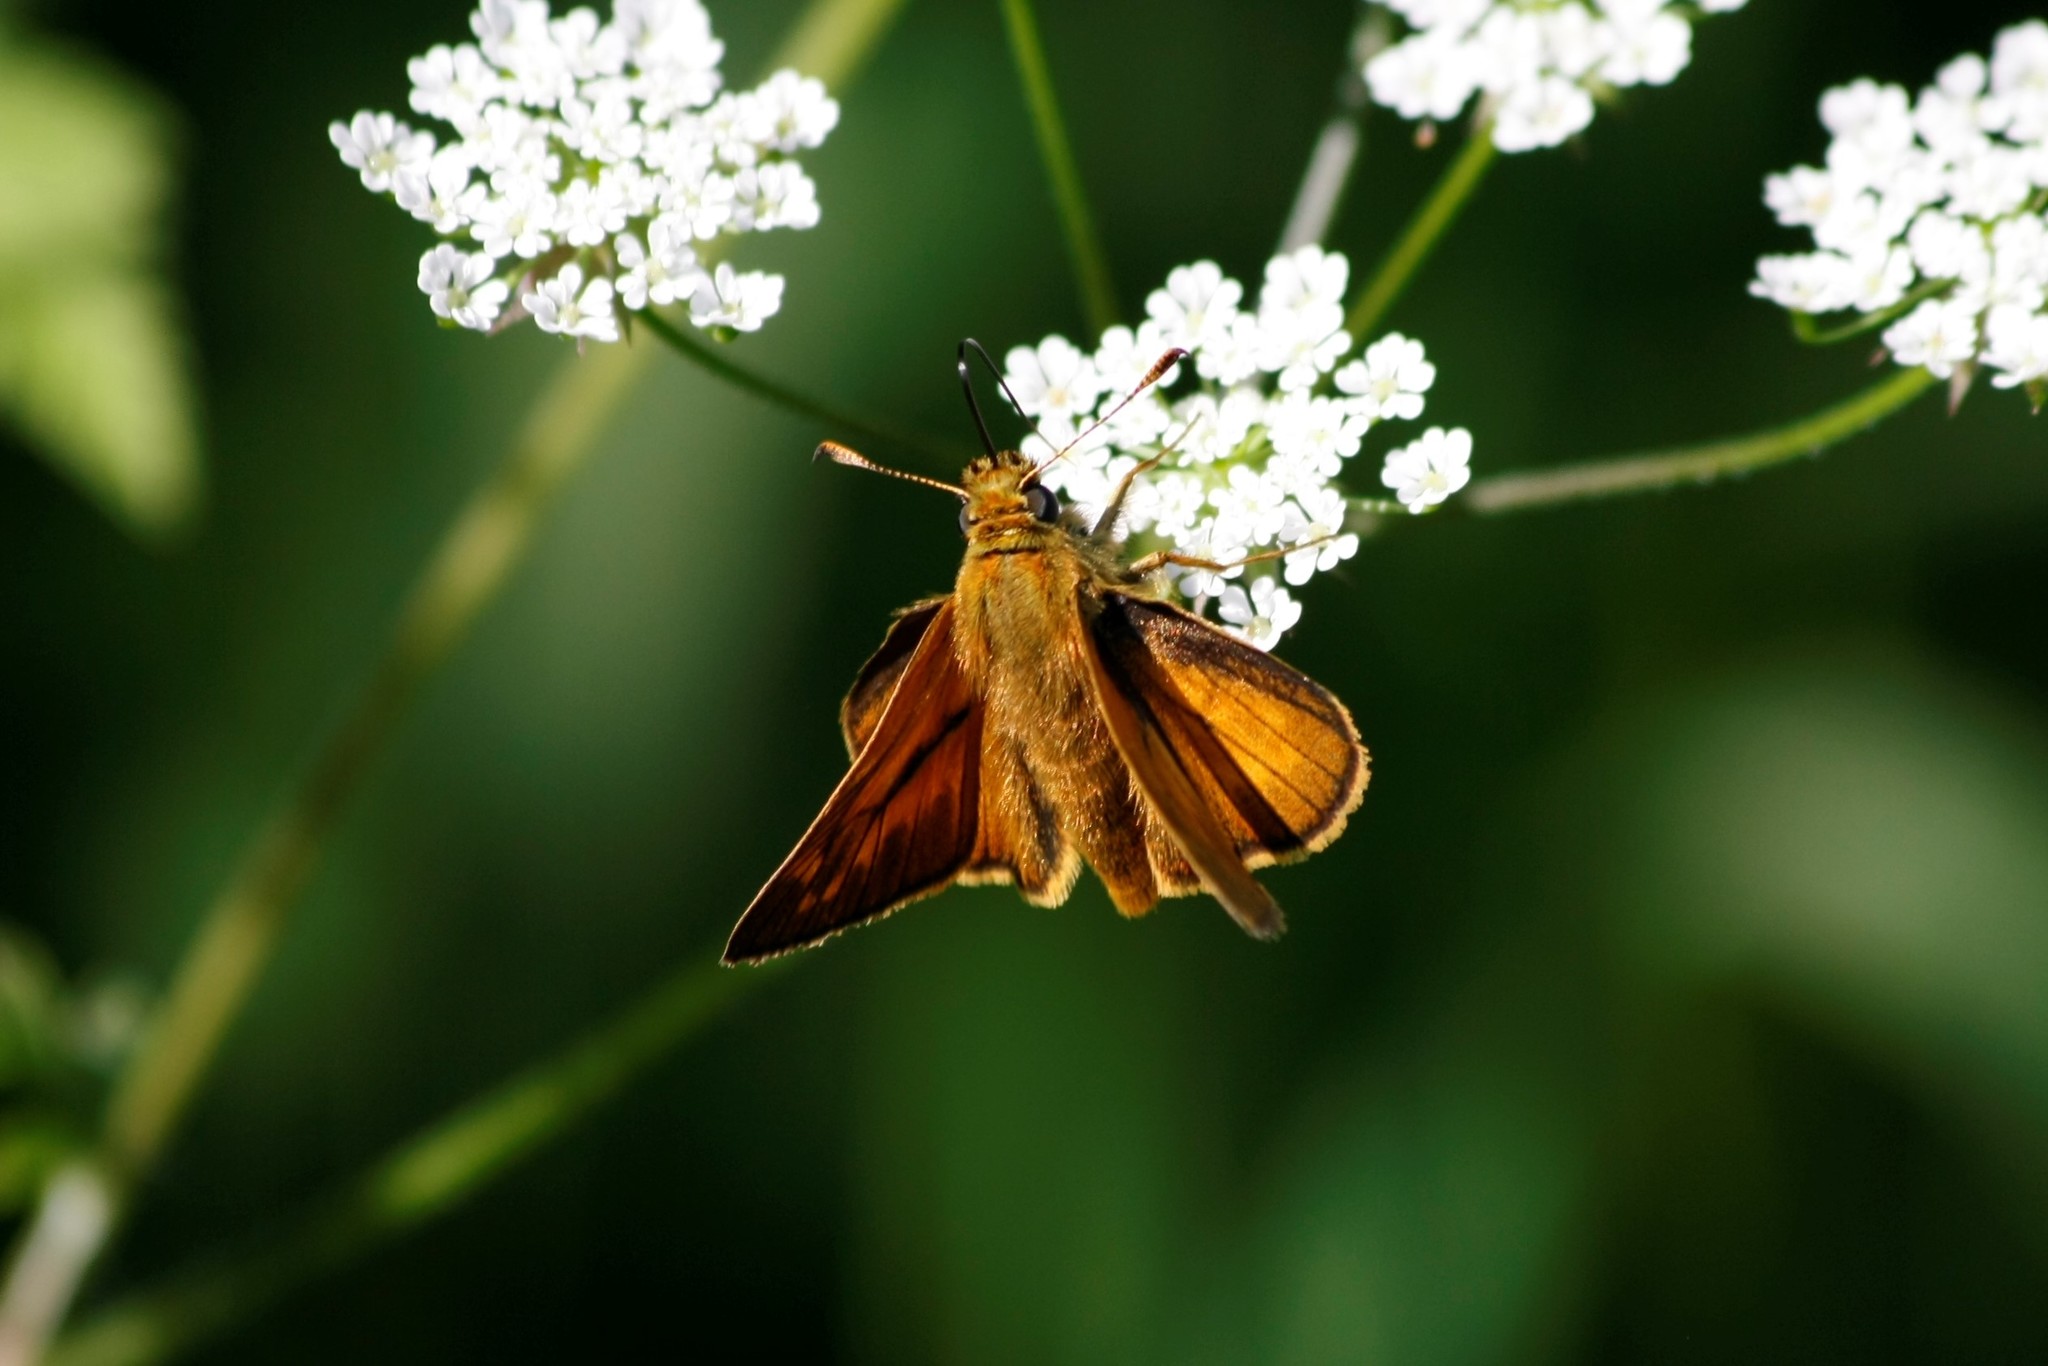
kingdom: Animalia
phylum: Arthropoda
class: Insecta
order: Lepidoptera
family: Hesperiidae
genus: Ochlodes
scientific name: Ochlodes venata
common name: Large skipper
